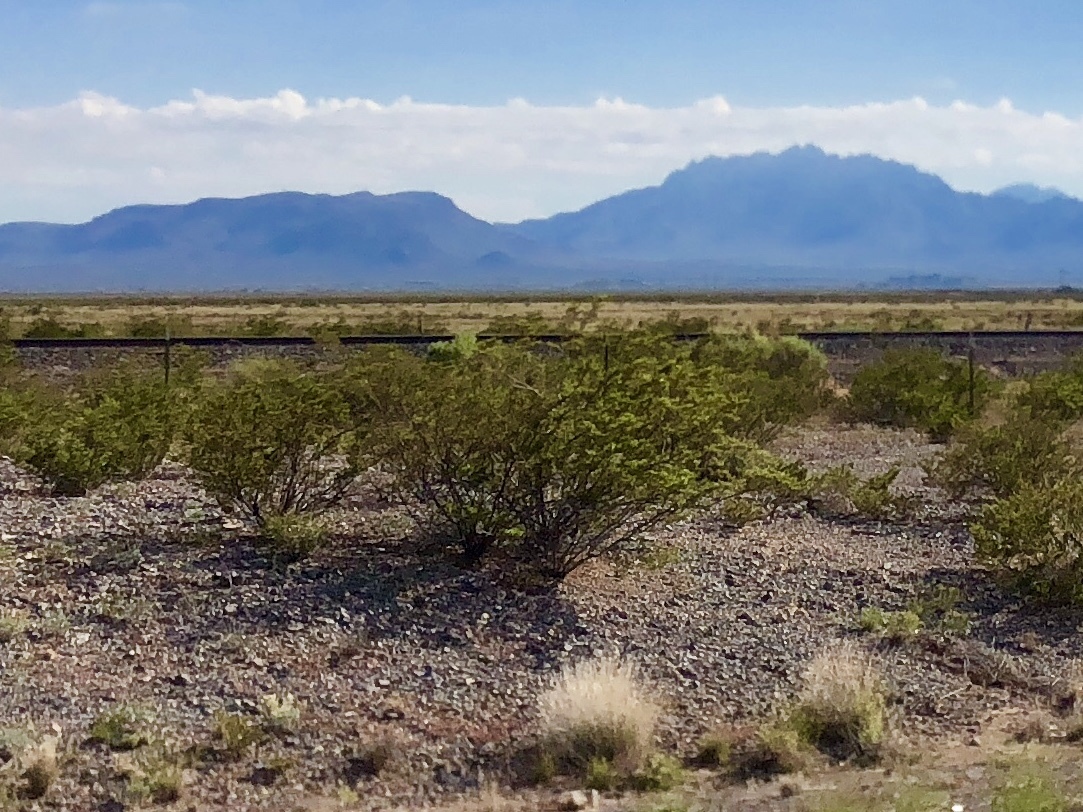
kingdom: Plantae
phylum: Tracheophyta
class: Magnoliopsida
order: Zygophyllales
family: Zygophyllaceae
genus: Larrea
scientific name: Larrea tridentata
